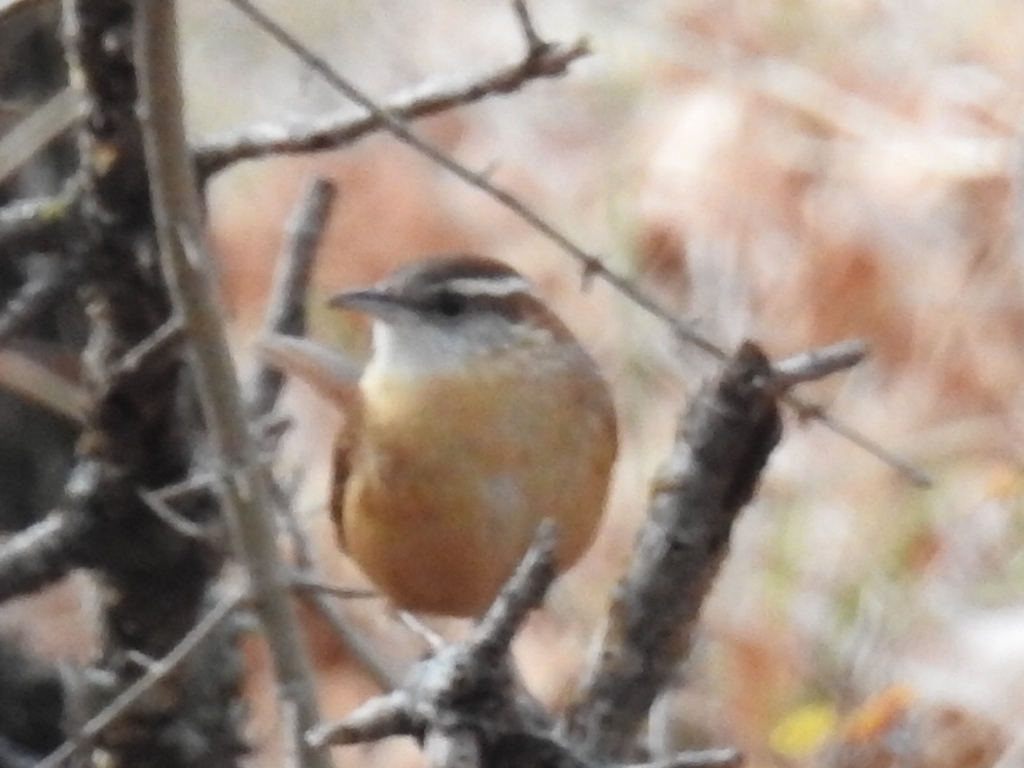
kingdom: Animalia
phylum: Chordata
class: Aves
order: Passeriformes
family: Troglodytidae
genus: Thryothorus
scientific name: Thryothorus ludovicianus
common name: Carolina wren
